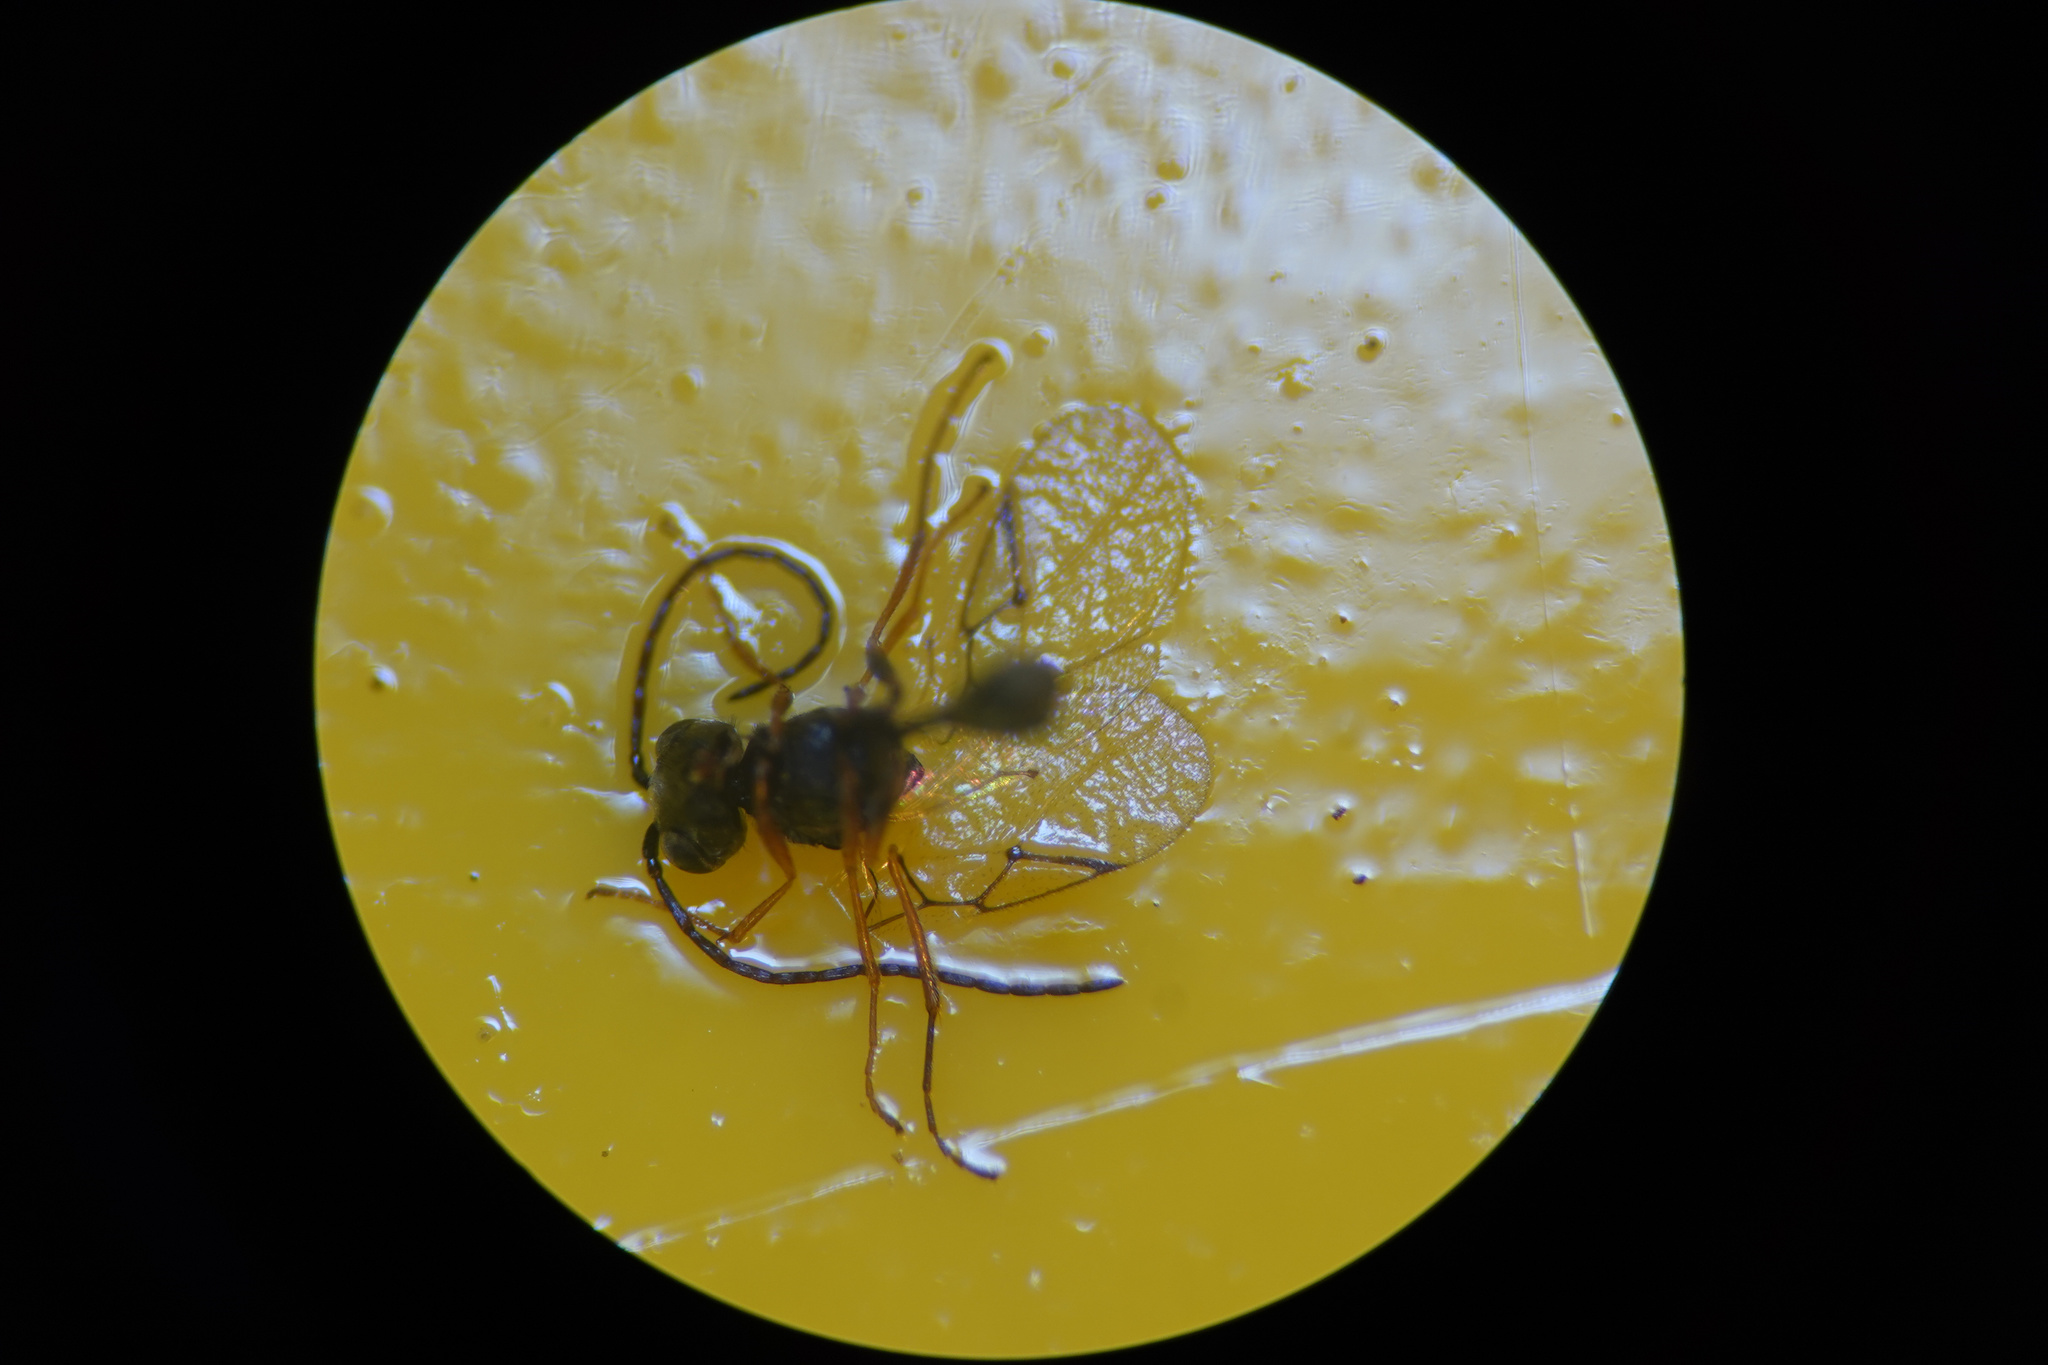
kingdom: Animalia
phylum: Arthropoda
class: Insecta
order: Hymenoptera
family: Figitidae
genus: Anacharis
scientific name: Anacharis zealandica
